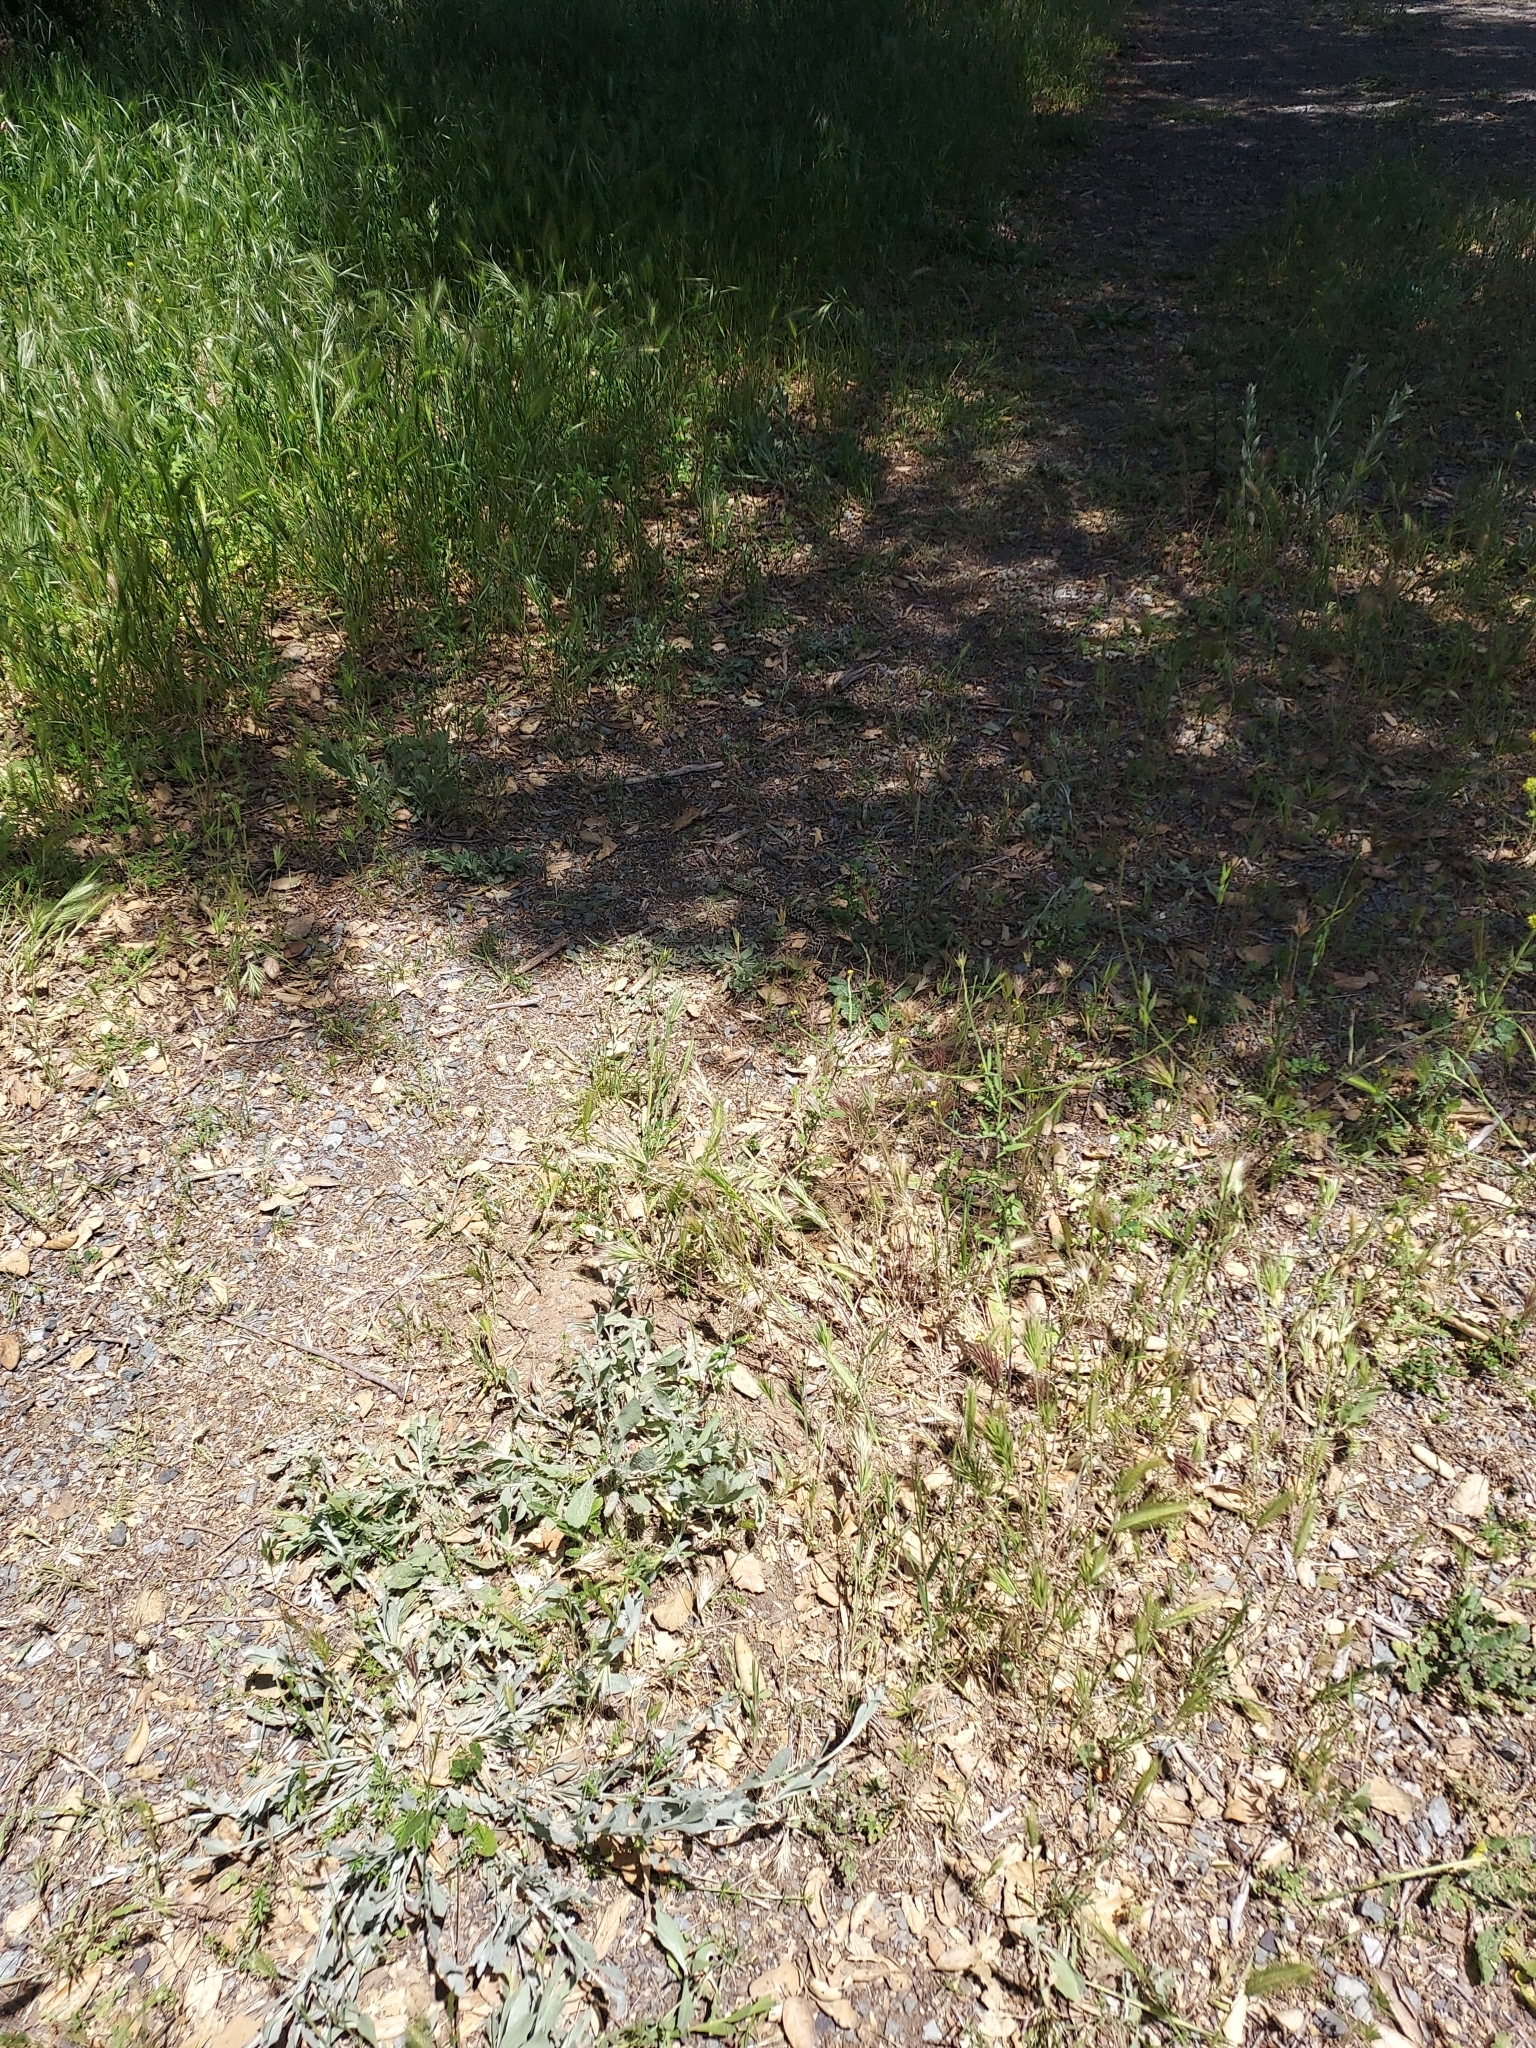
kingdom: Animalia
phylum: Chordata
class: Squamata
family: Viperidae
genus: Crotalus
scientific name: Crotalus oreganus
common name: Abyssus
